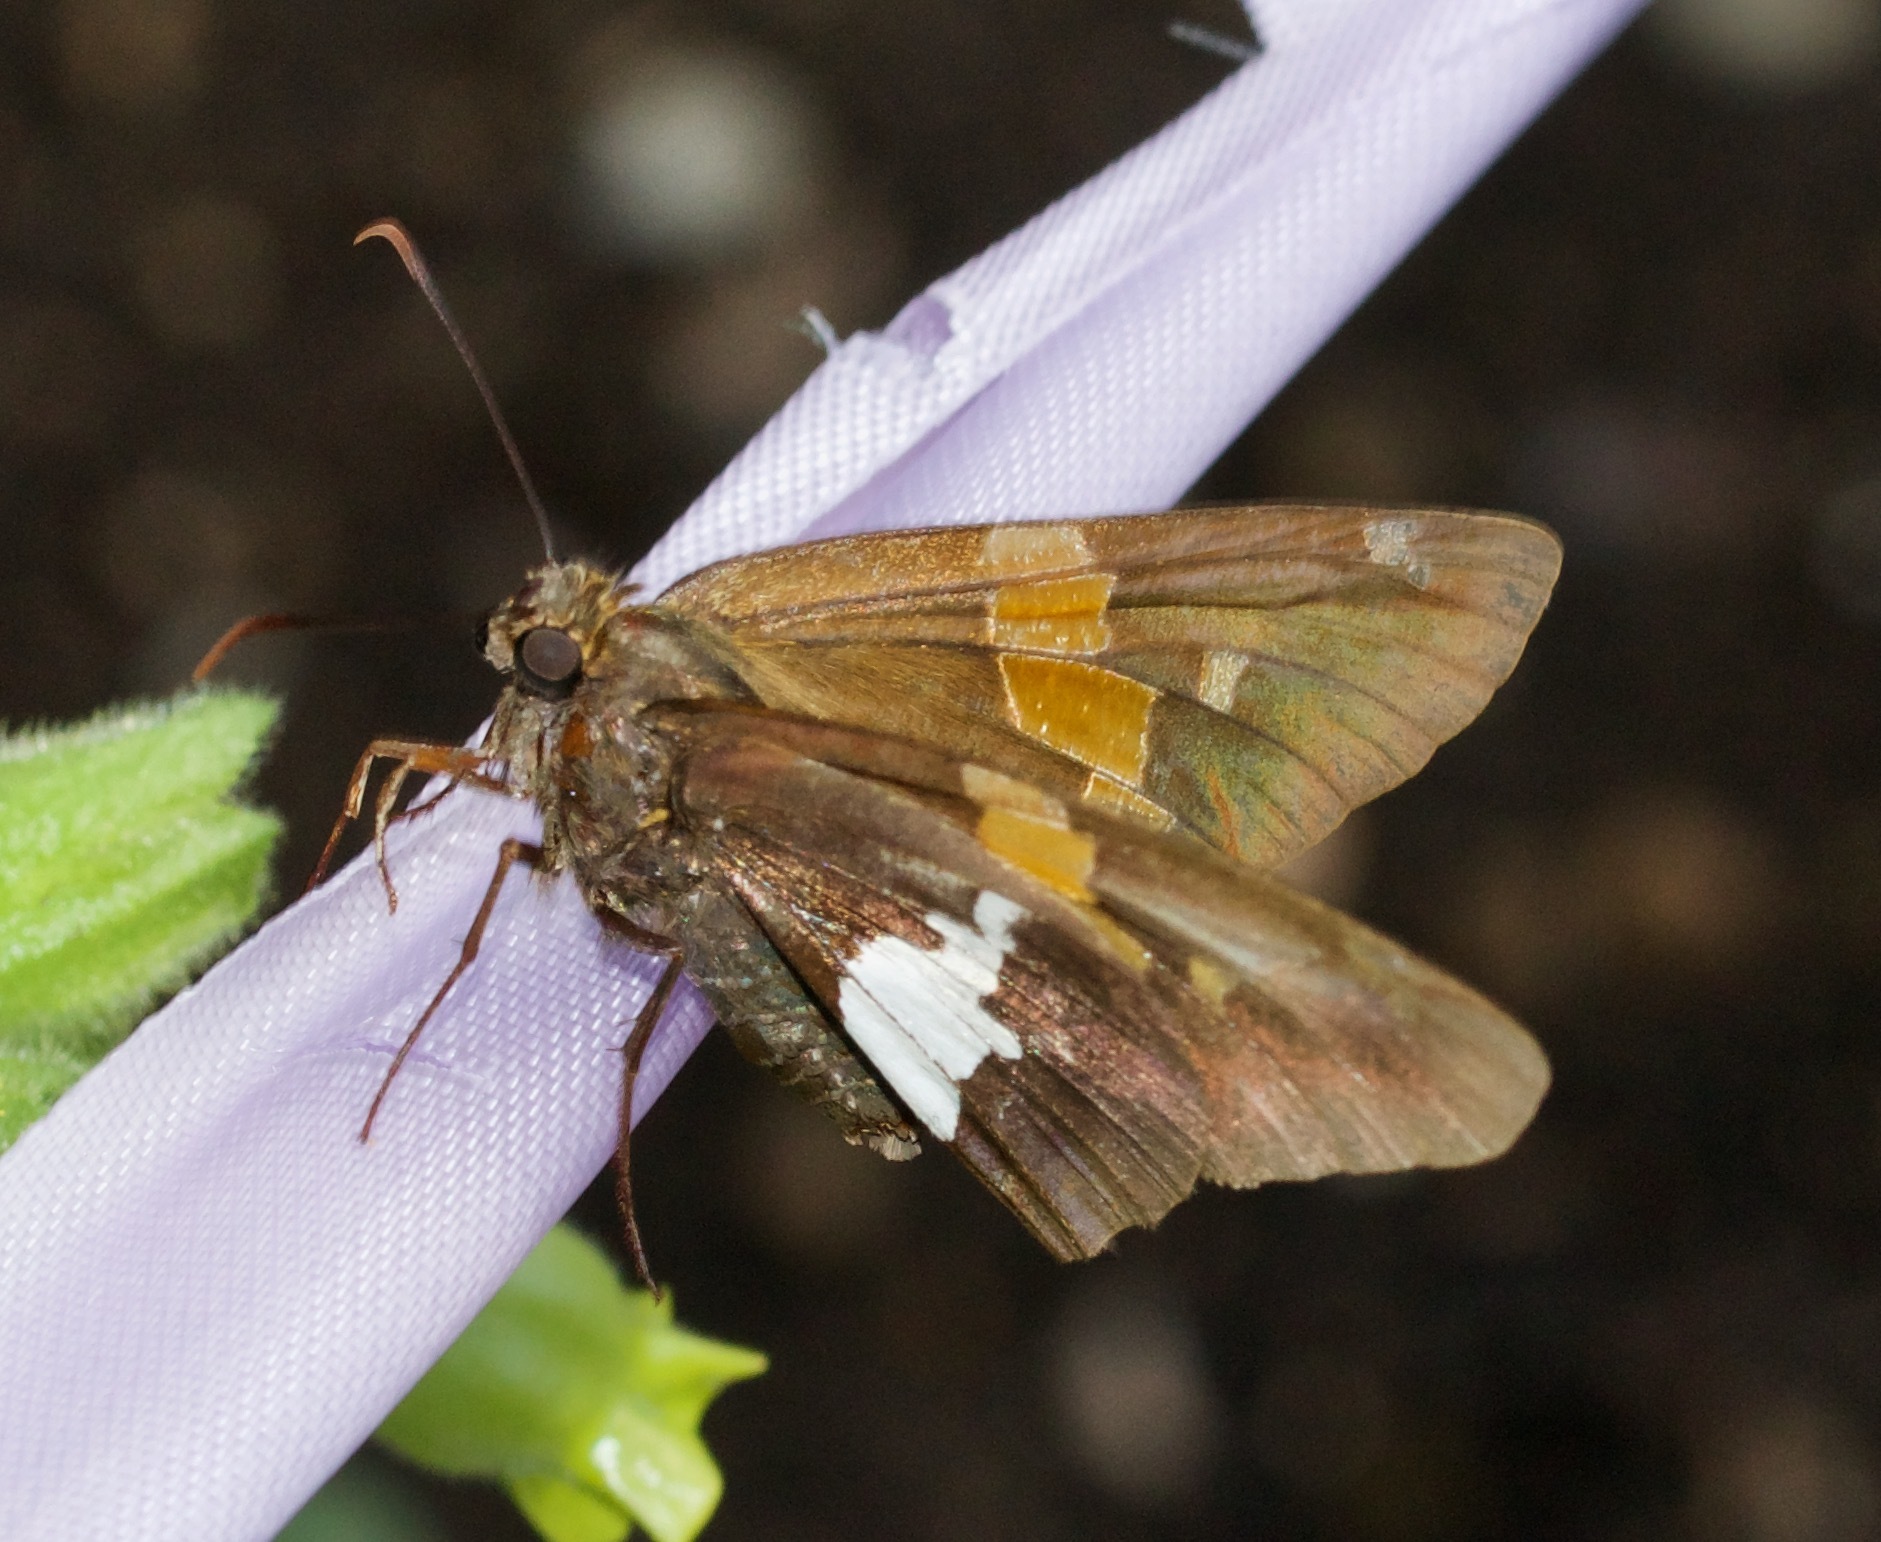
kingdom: Animalia
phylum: Arthropoda
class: Insecta
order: Lepidoptera
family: Hesperiidae
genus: Epargyreus
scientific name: Epargyreus clarus
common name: Silver-spotted skipper
